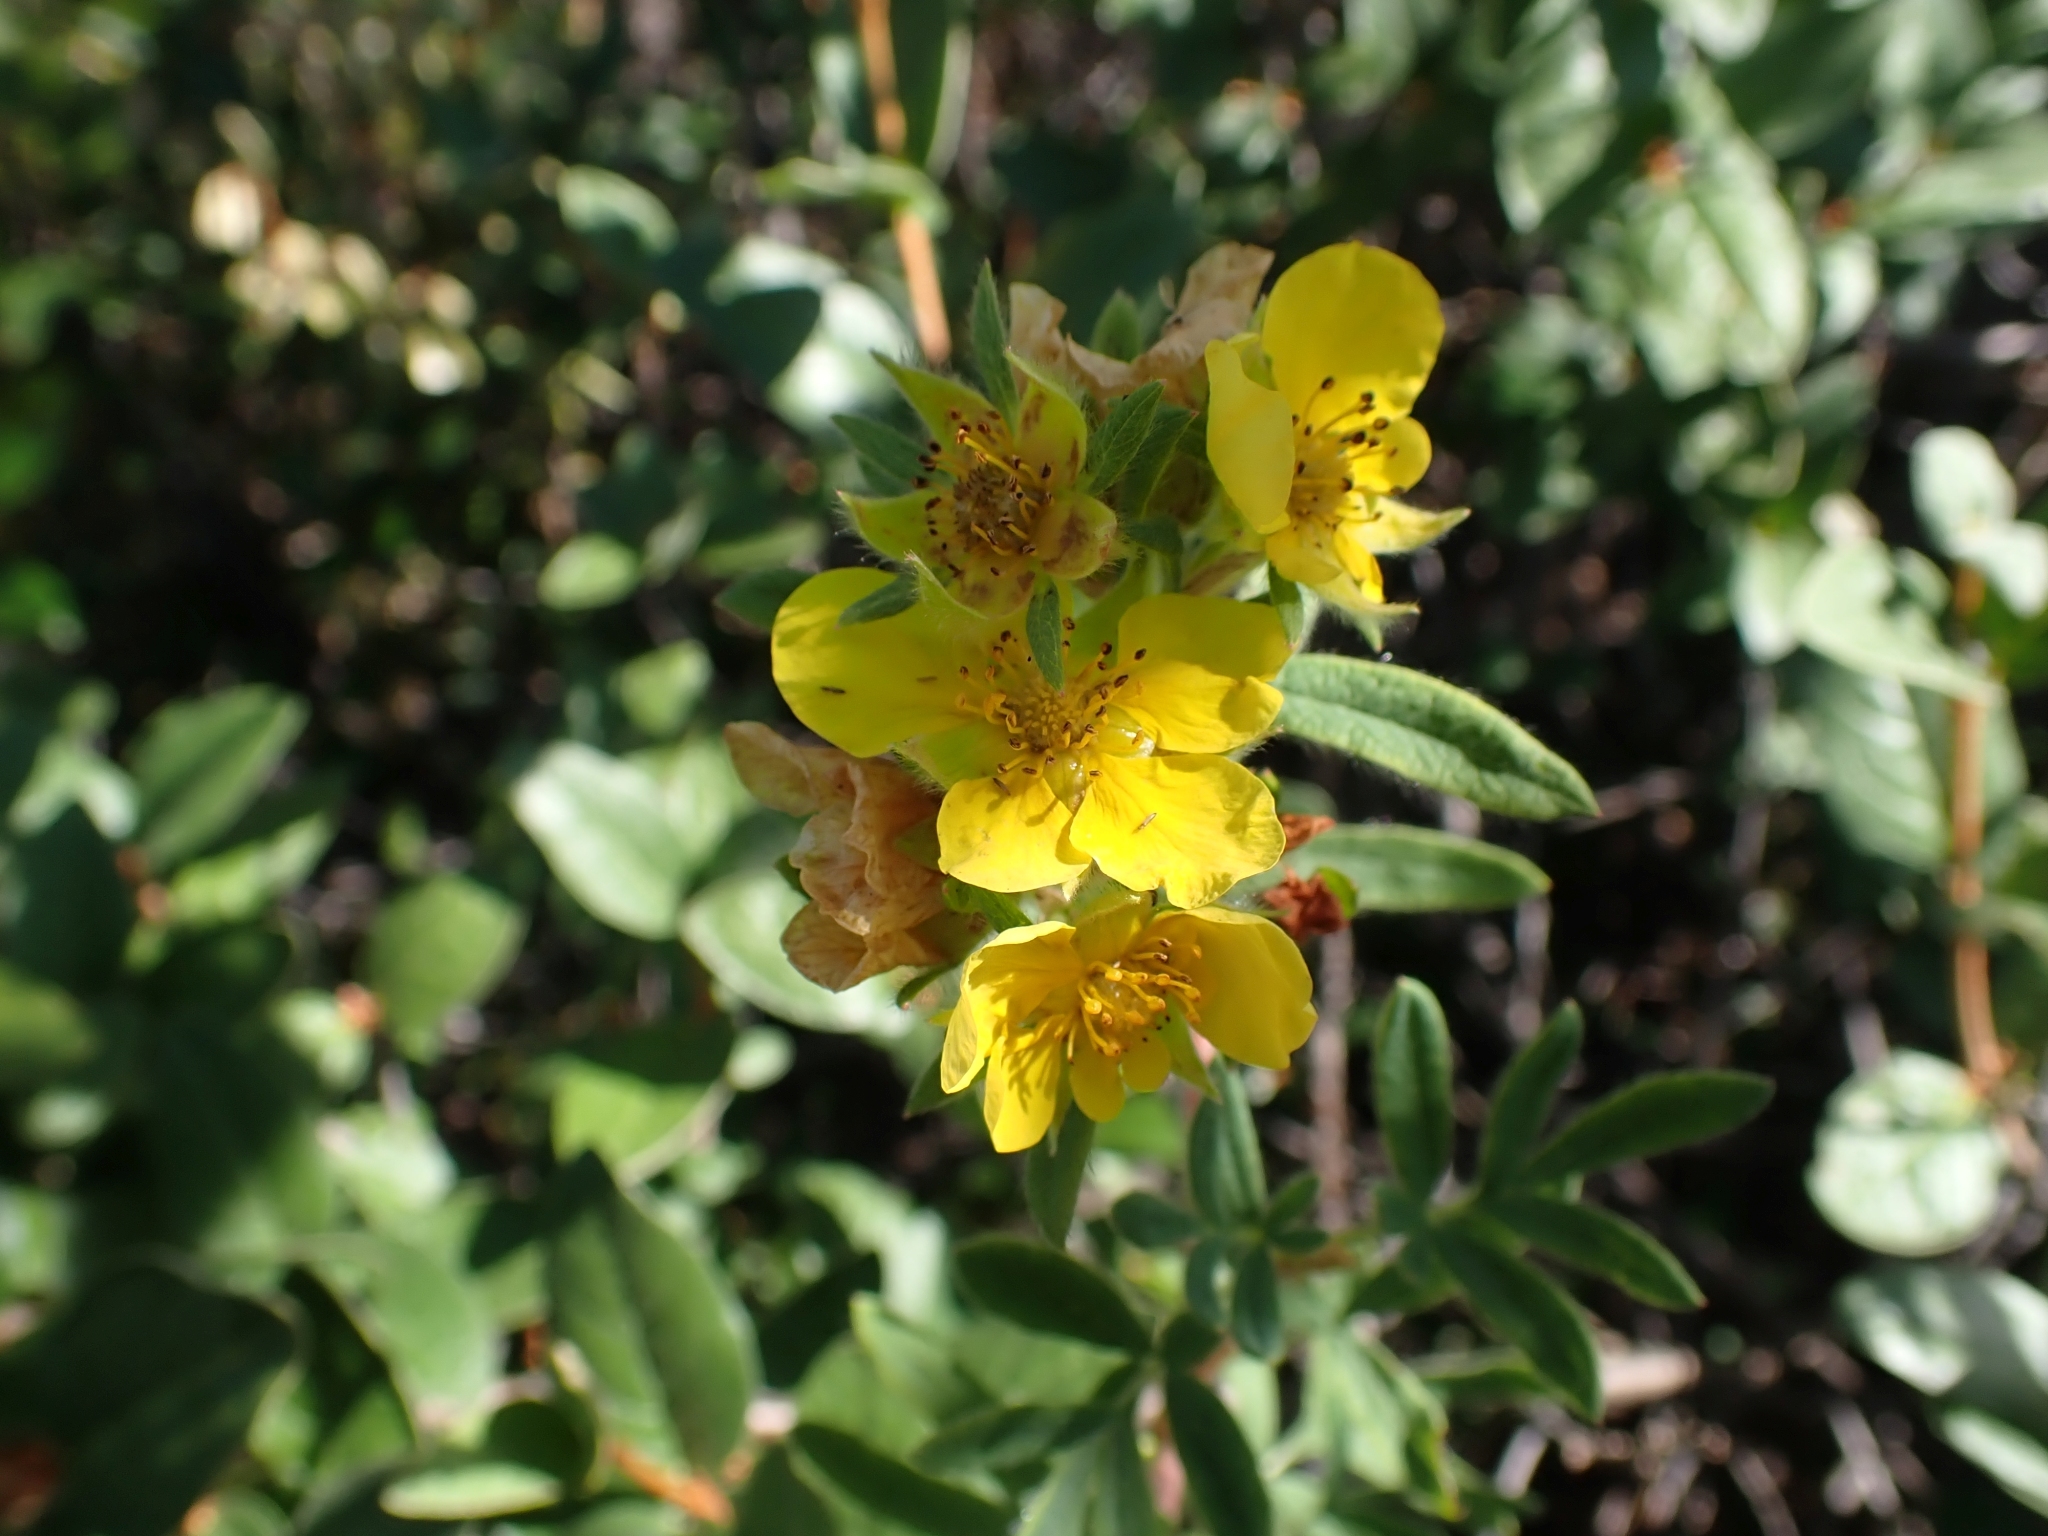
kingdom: Plantae
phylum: Tracheophyta
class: Magnoliopsida
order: Rosales
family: Rosaceae
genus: Dasiphora
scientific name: Dasiphora fruticosa
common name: Shrubby cinquefoil
